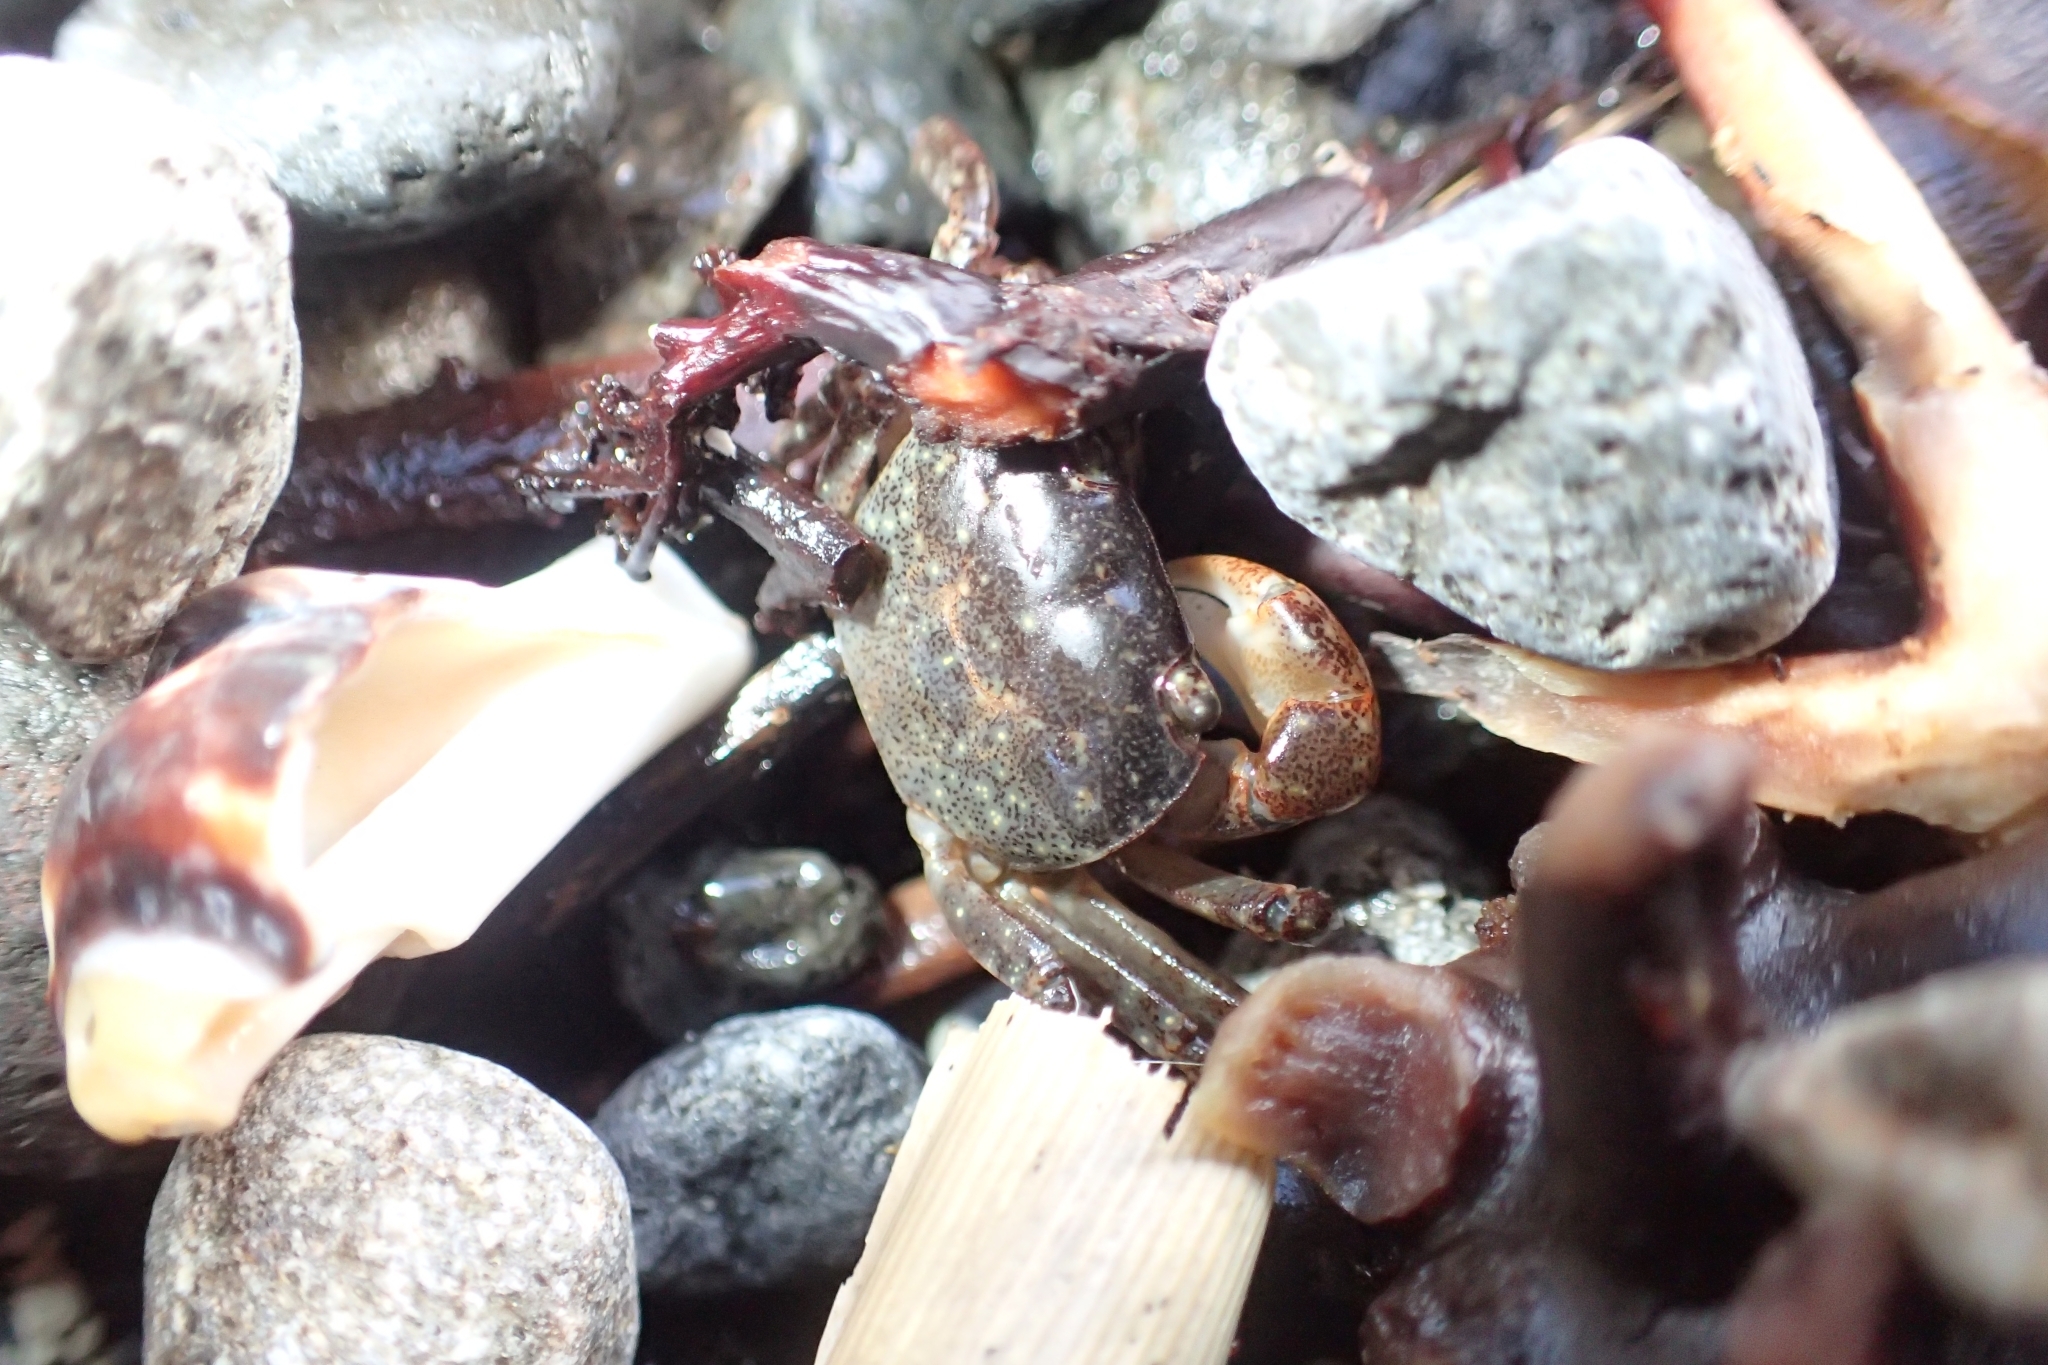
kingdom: Animalia
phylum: Arthropoda
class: Malacostraca
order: Decapoda
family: Varunidae
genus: Cyclograpsus
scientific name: Cyclograpsus lavauxi
